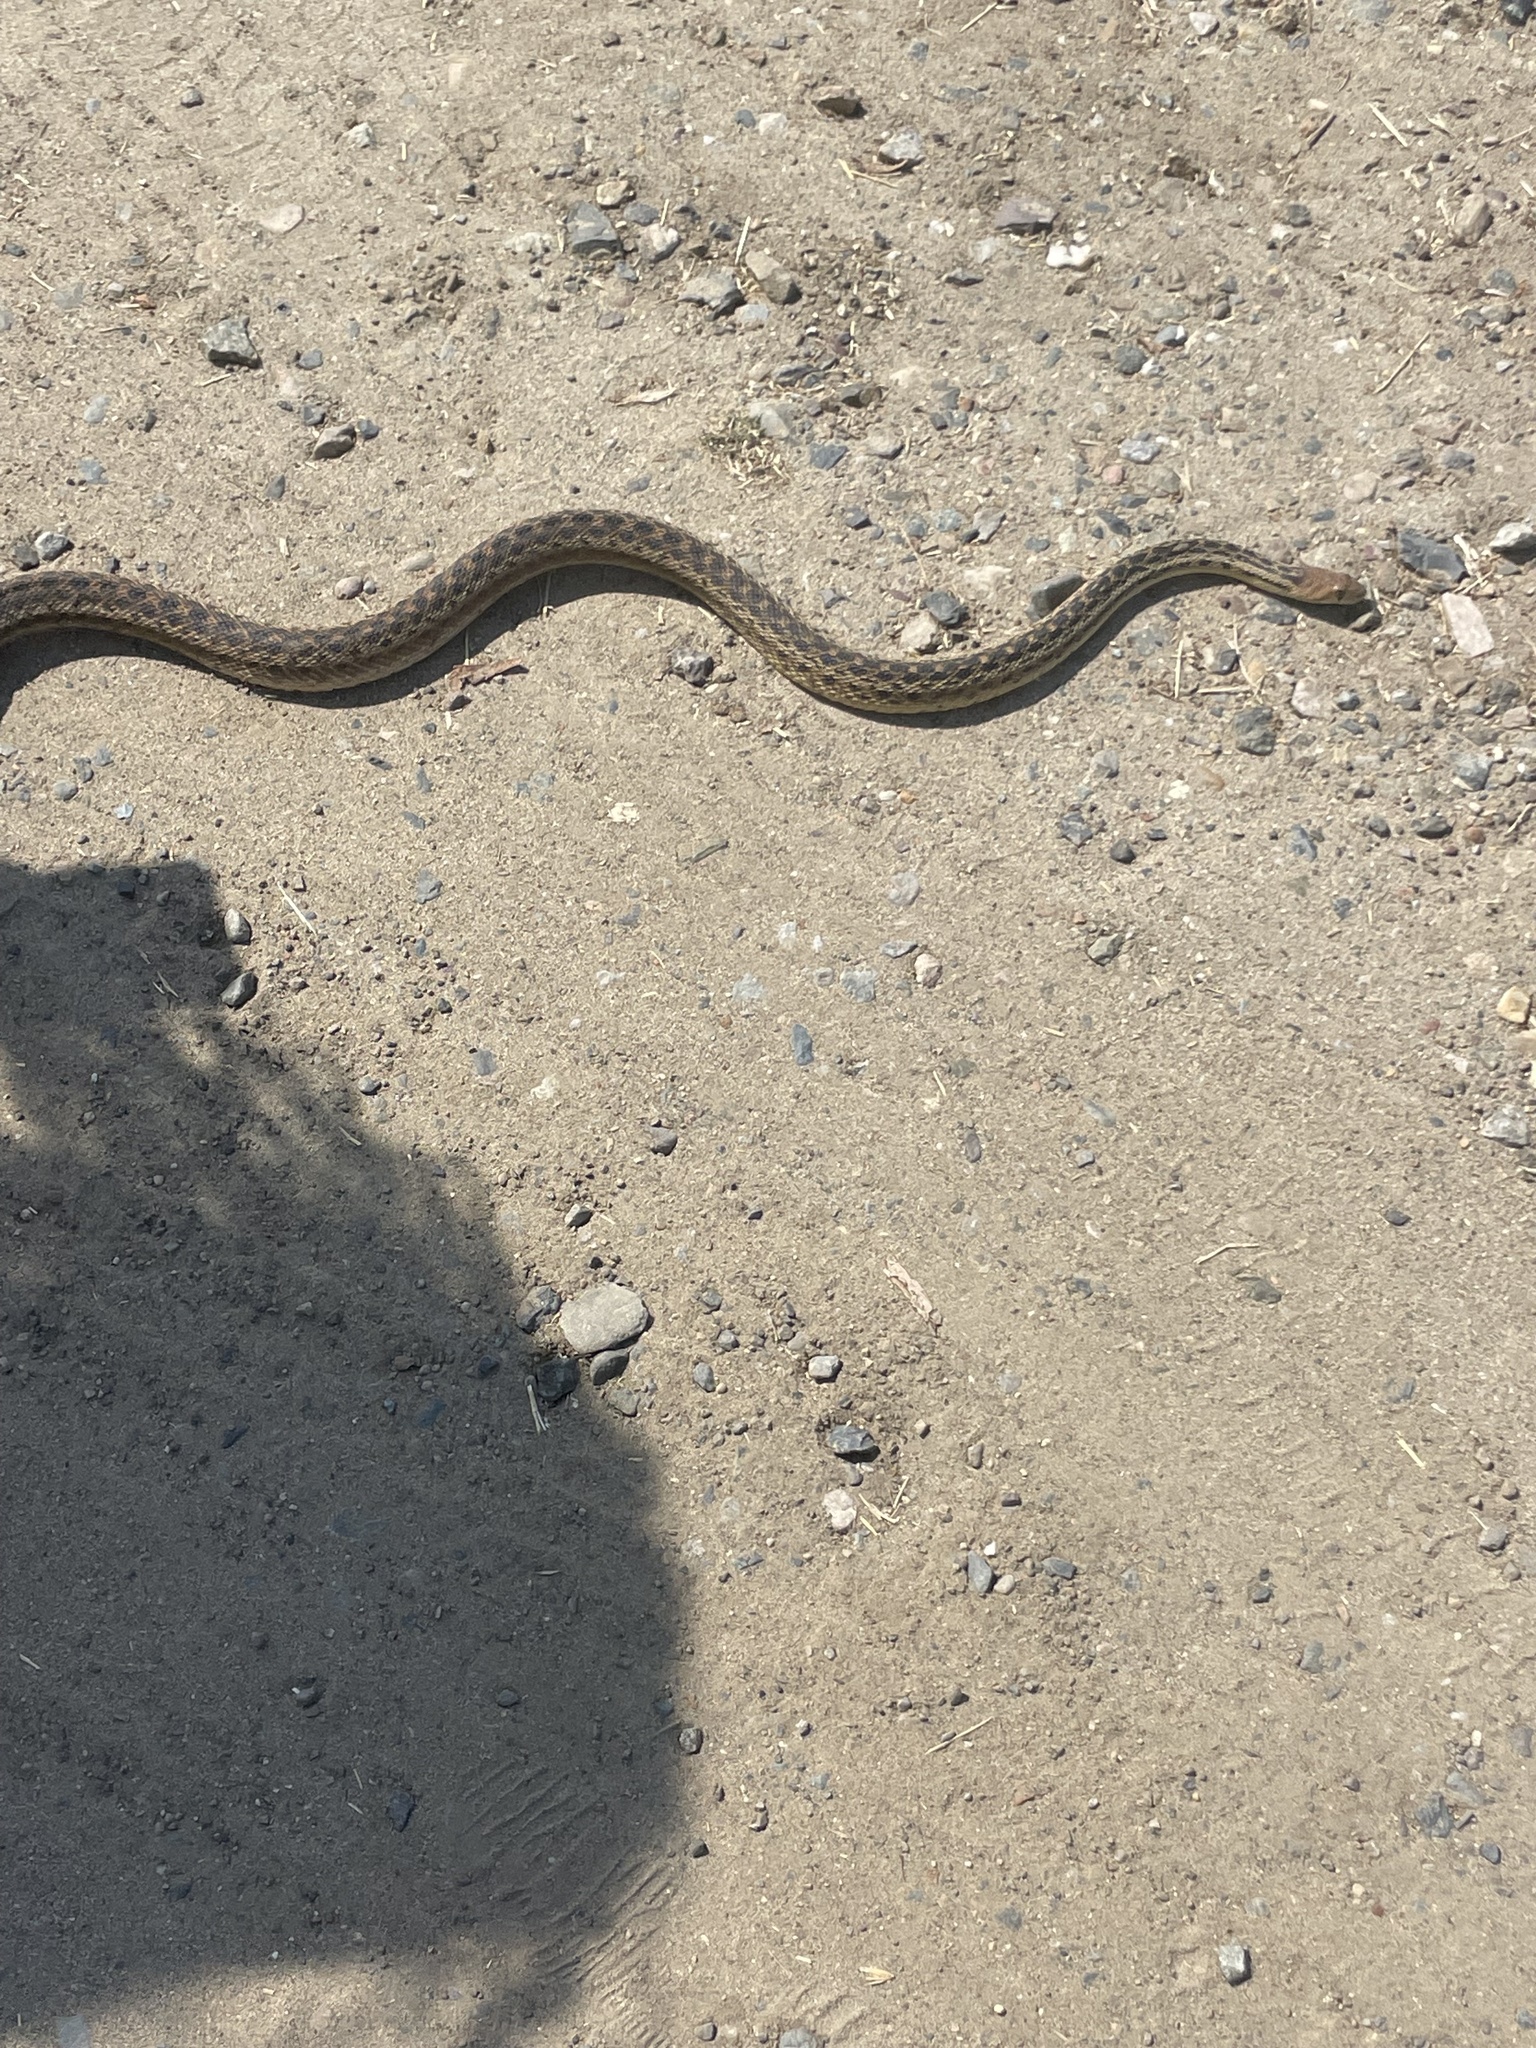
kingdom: Animalia
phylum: Chordata
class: Squamata
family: Colubridae
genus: Pituophis
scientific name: Pituophis catenifer
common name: Gopher snake
